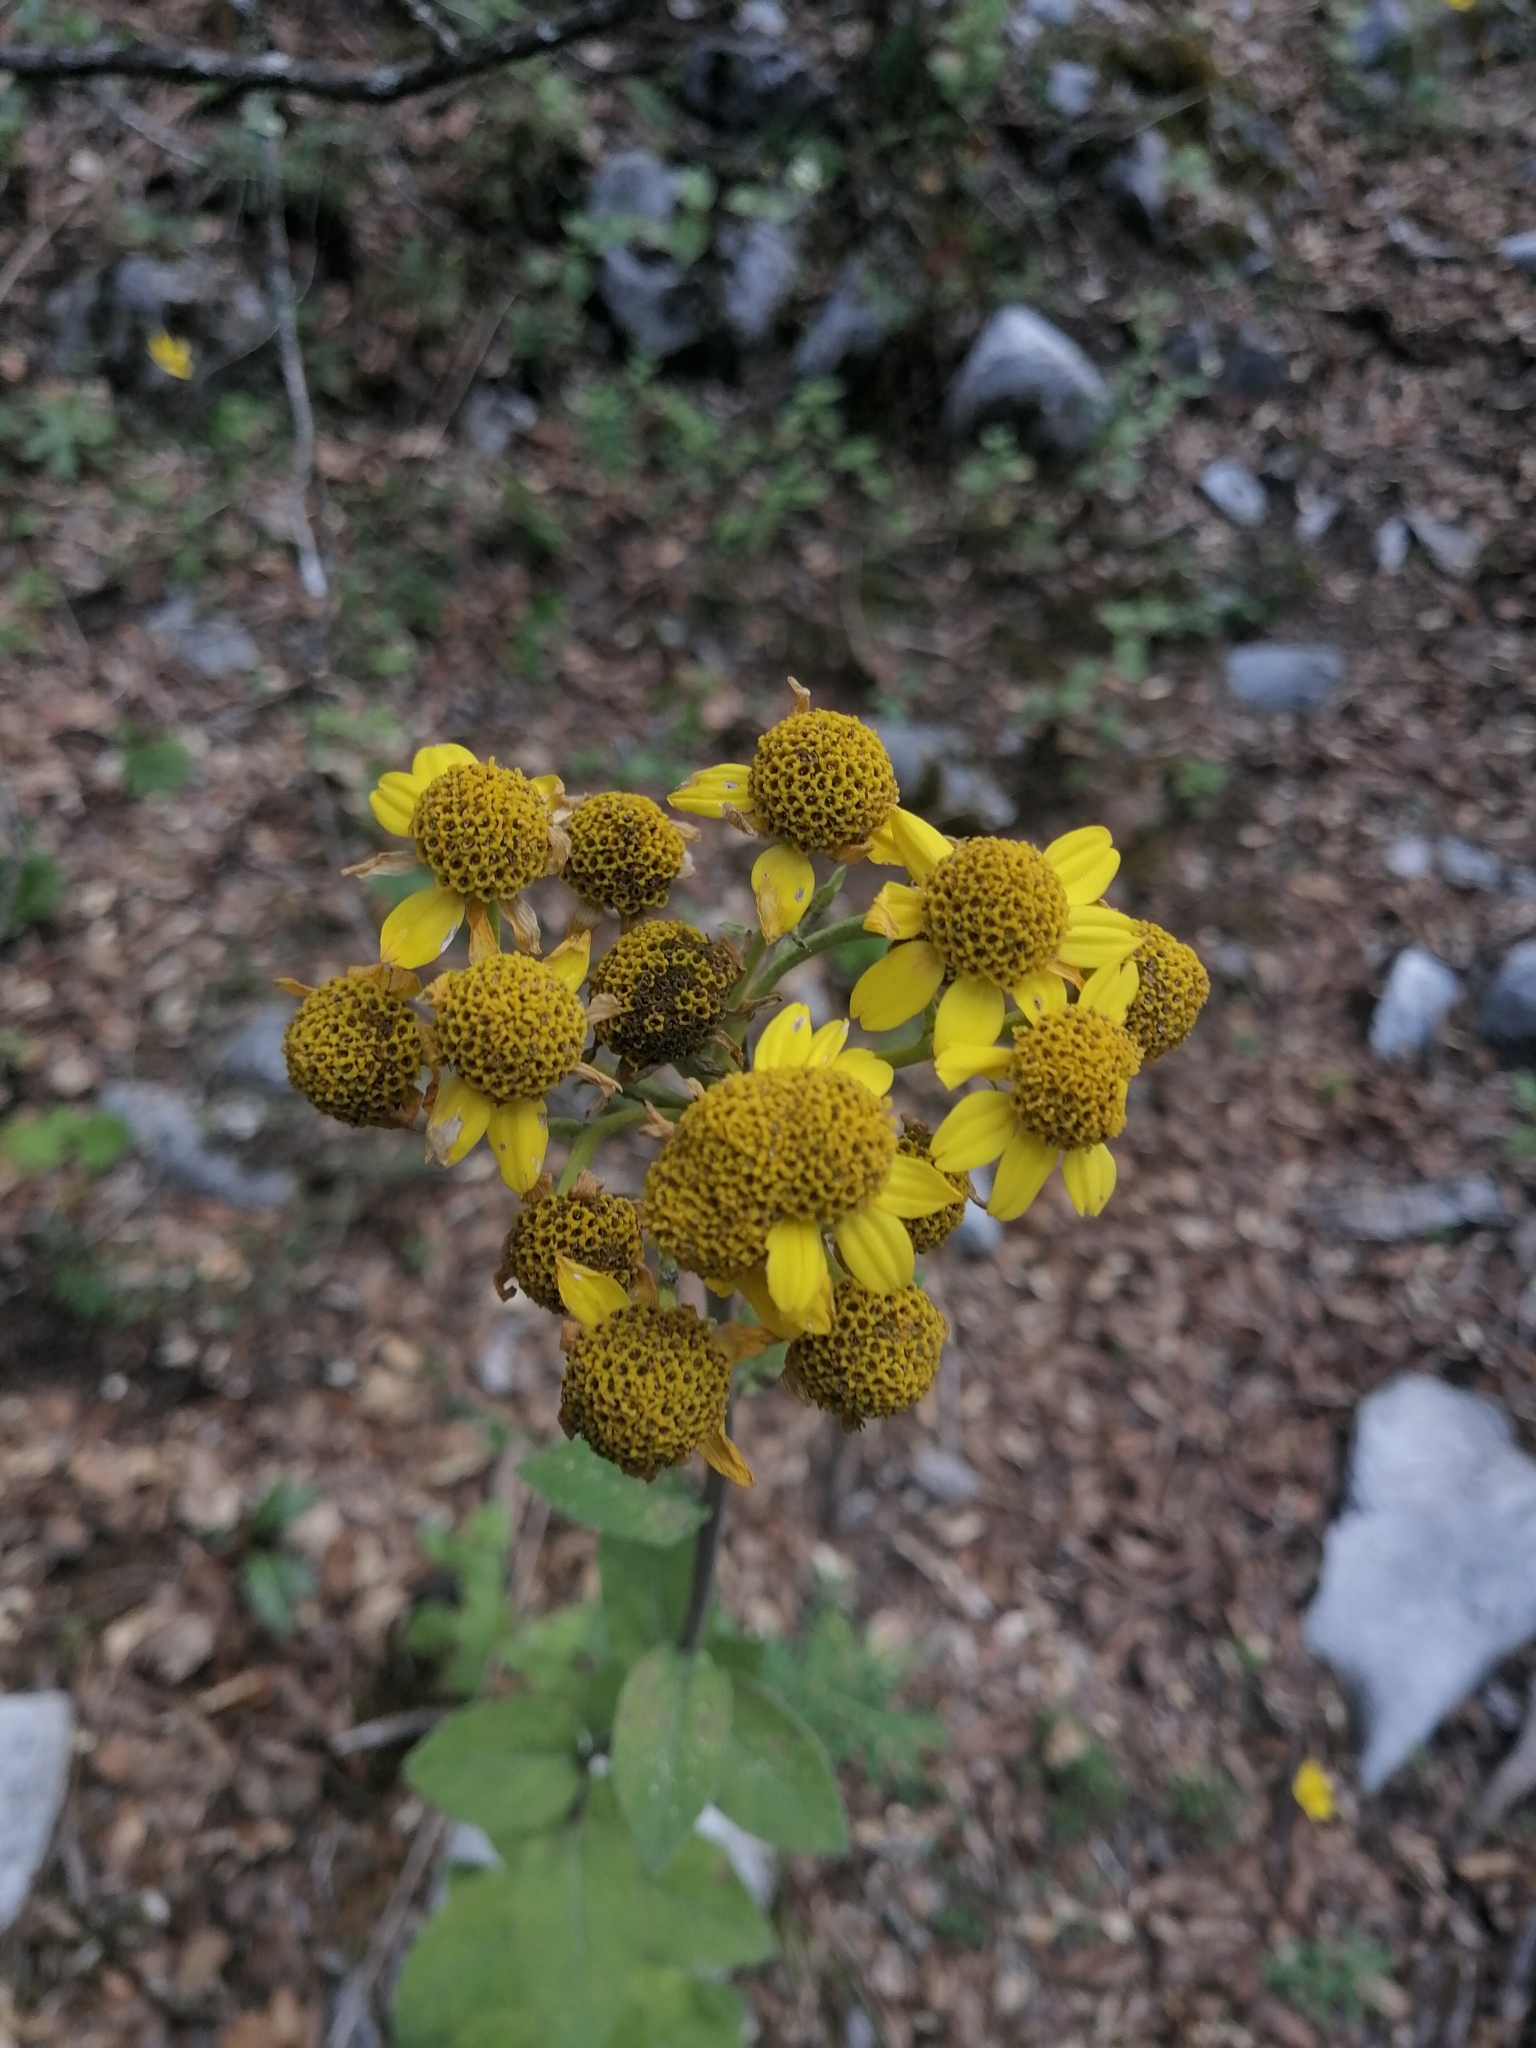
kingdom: Plantae
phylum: Tracheophyta
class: Magnoliopsida
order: Asterales
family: Asteraceae
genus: Zaluzania
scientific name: Zaluzania megacephala
